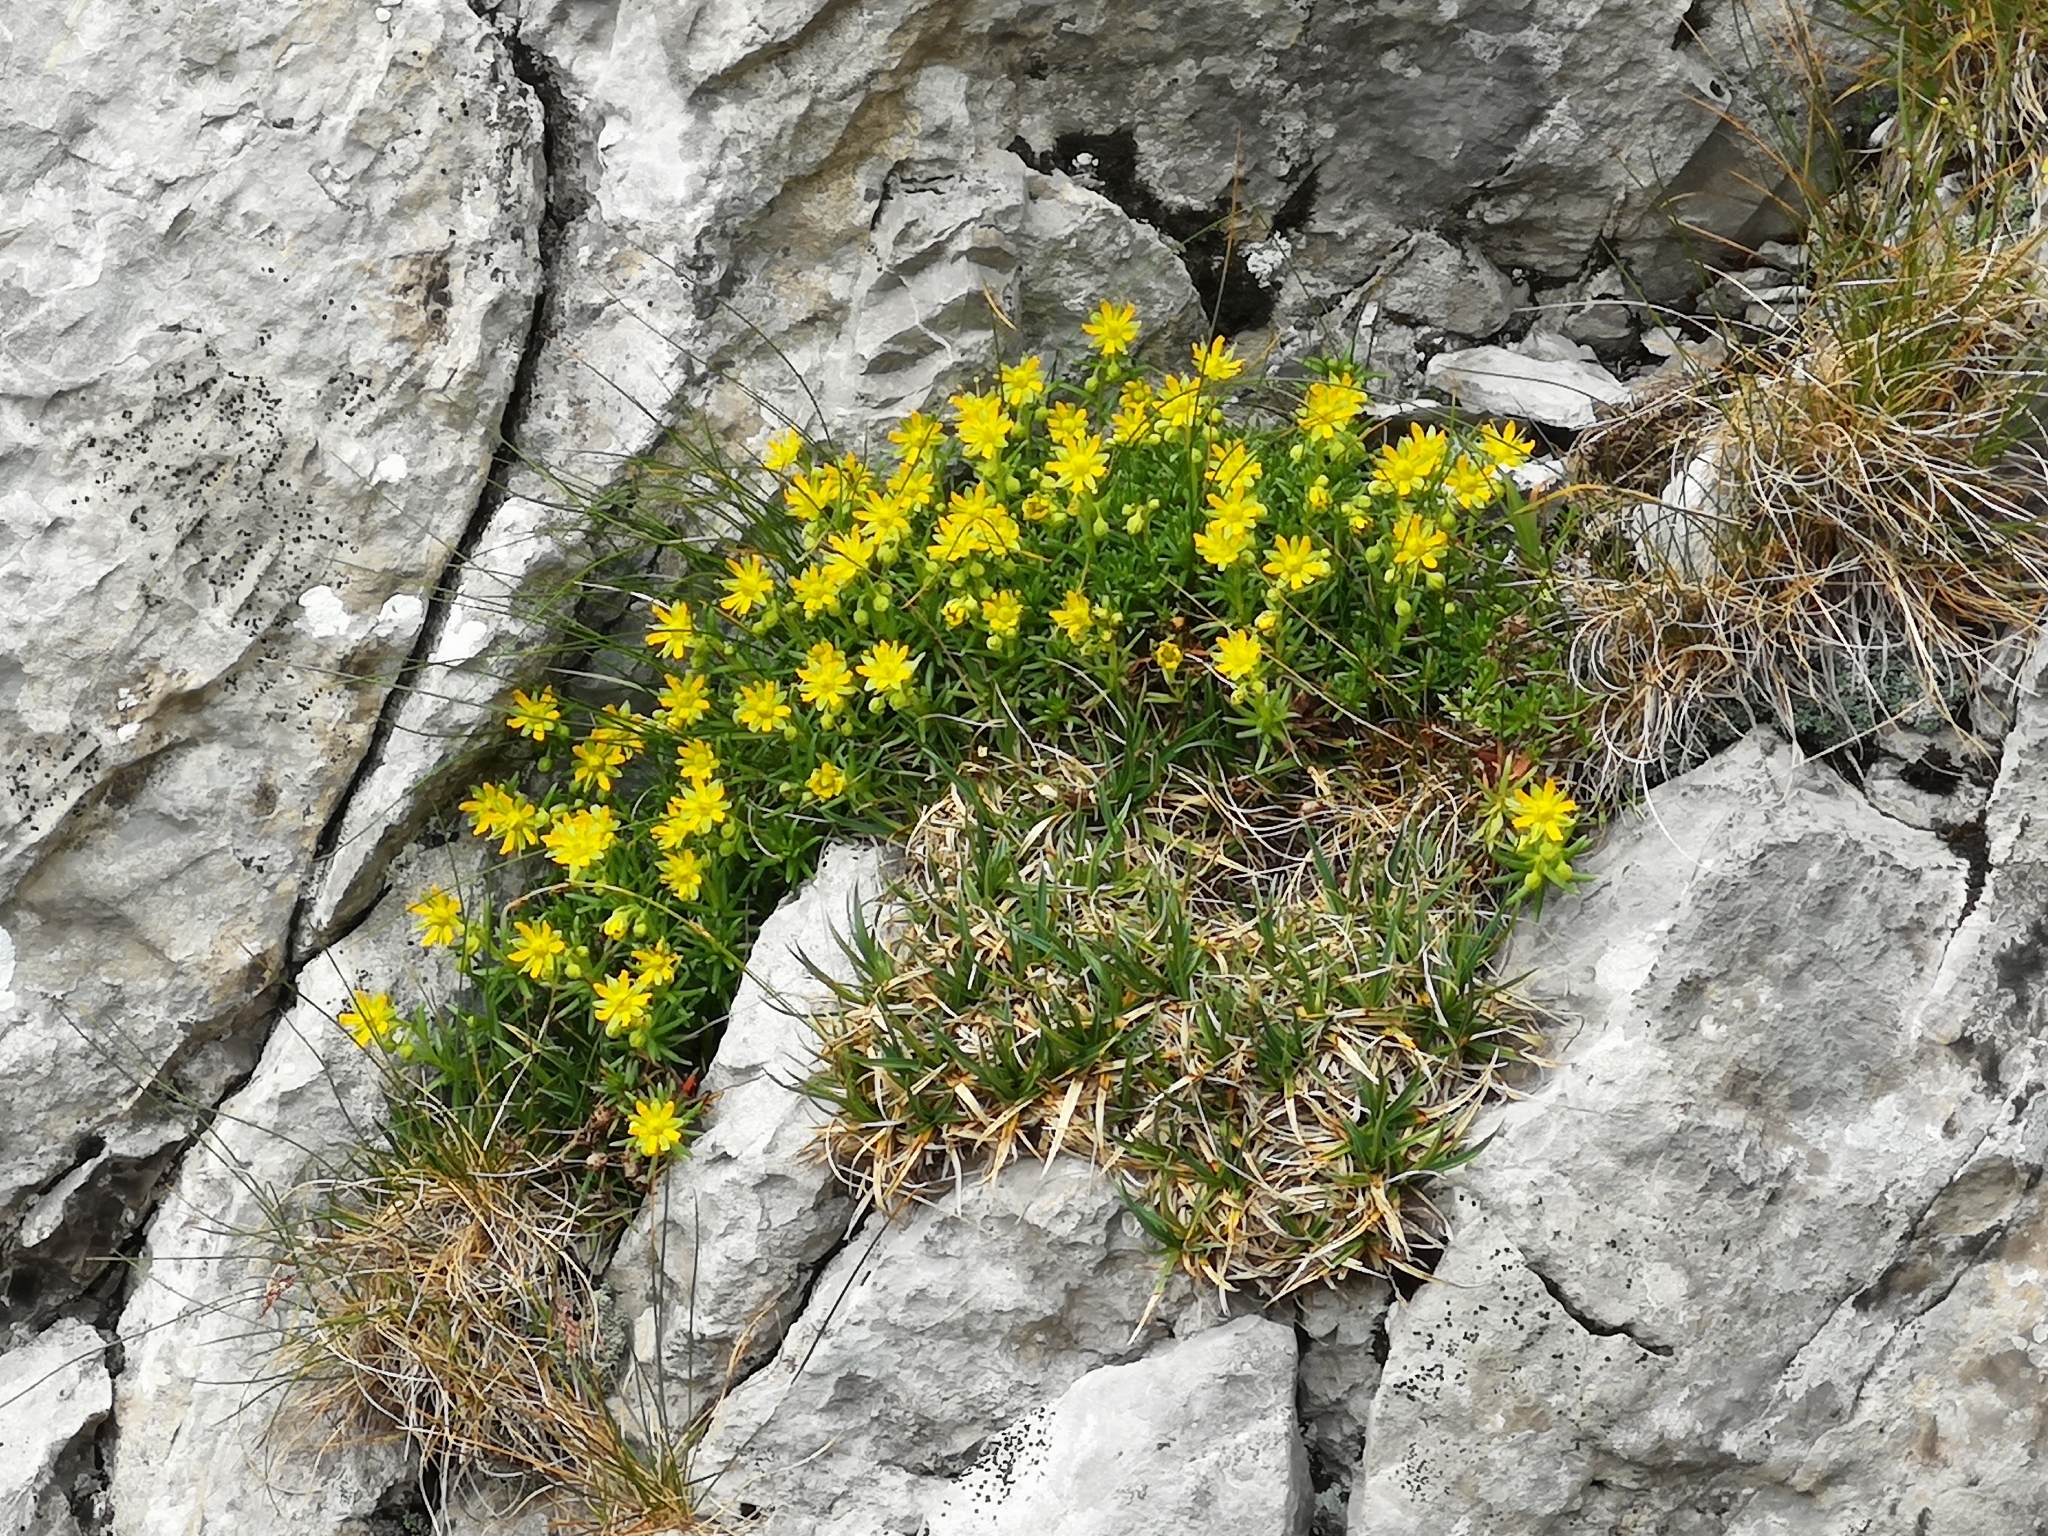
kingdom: Plantae
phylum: Tracheophyta
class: Magnoliopsida
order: Saxifragales
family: Saxifragaceae
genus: Saxifraga
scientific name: Saxifraga aizoides
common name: Yellow mountain saxifrage
